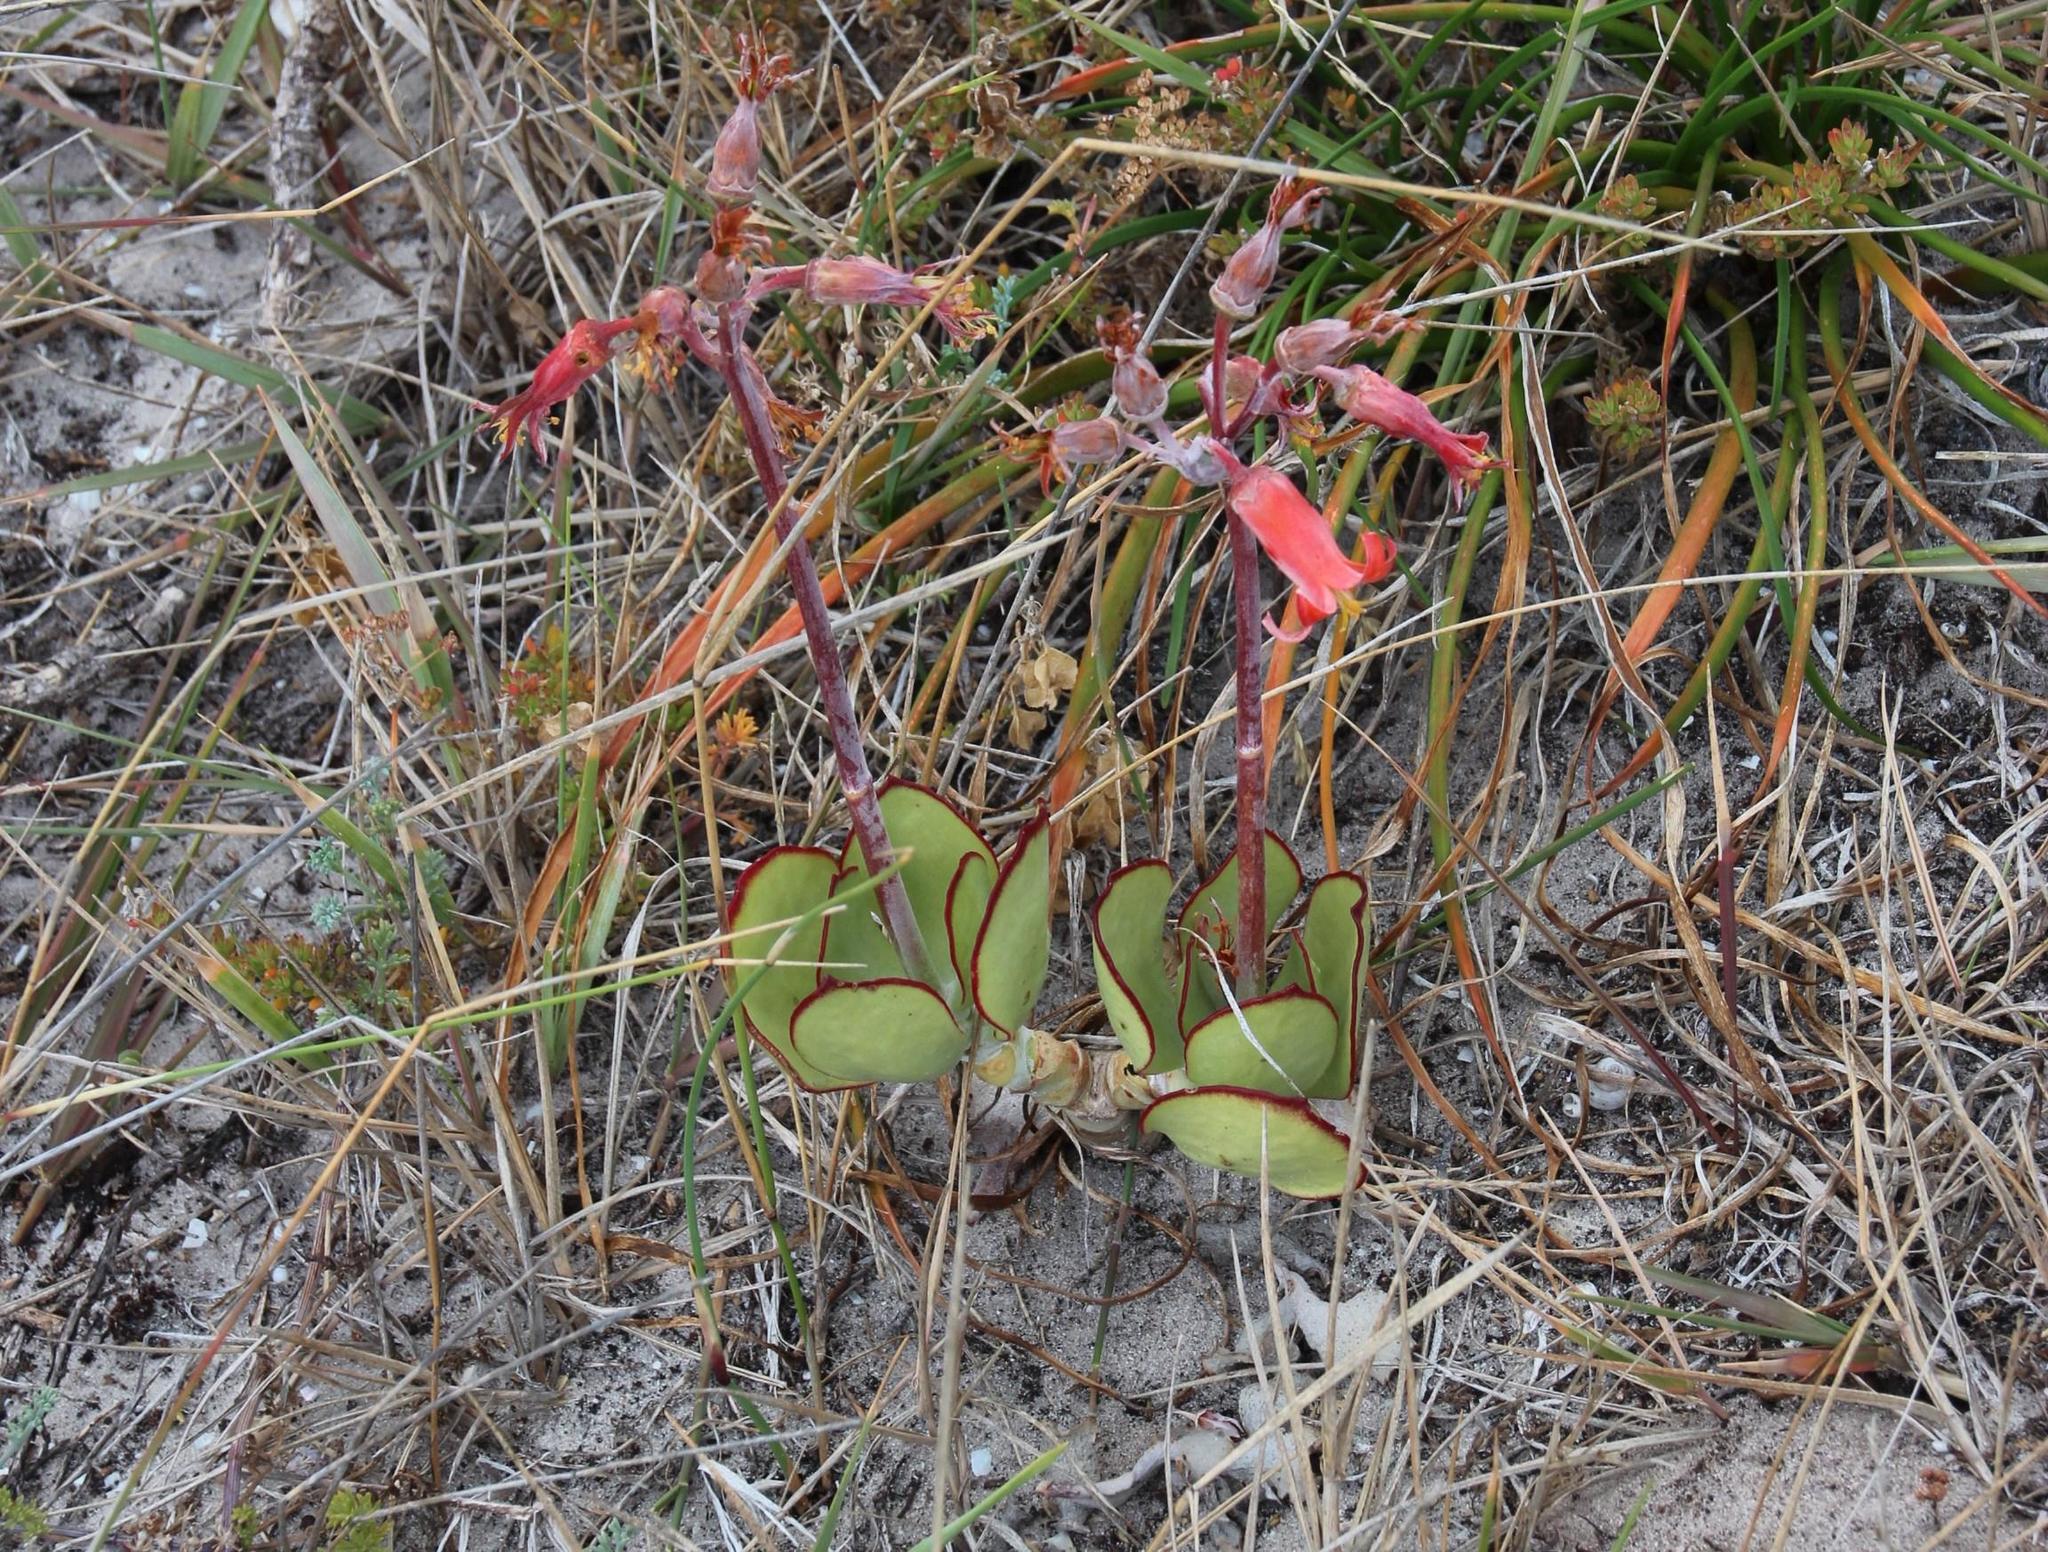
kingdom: Plantae
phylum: Tracheophyta
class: Magnoliopsida
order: Saxifragales
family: Crassulaceae
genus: Cotyledon
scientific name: Cotyledon orbiculata
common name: Pig's ear
